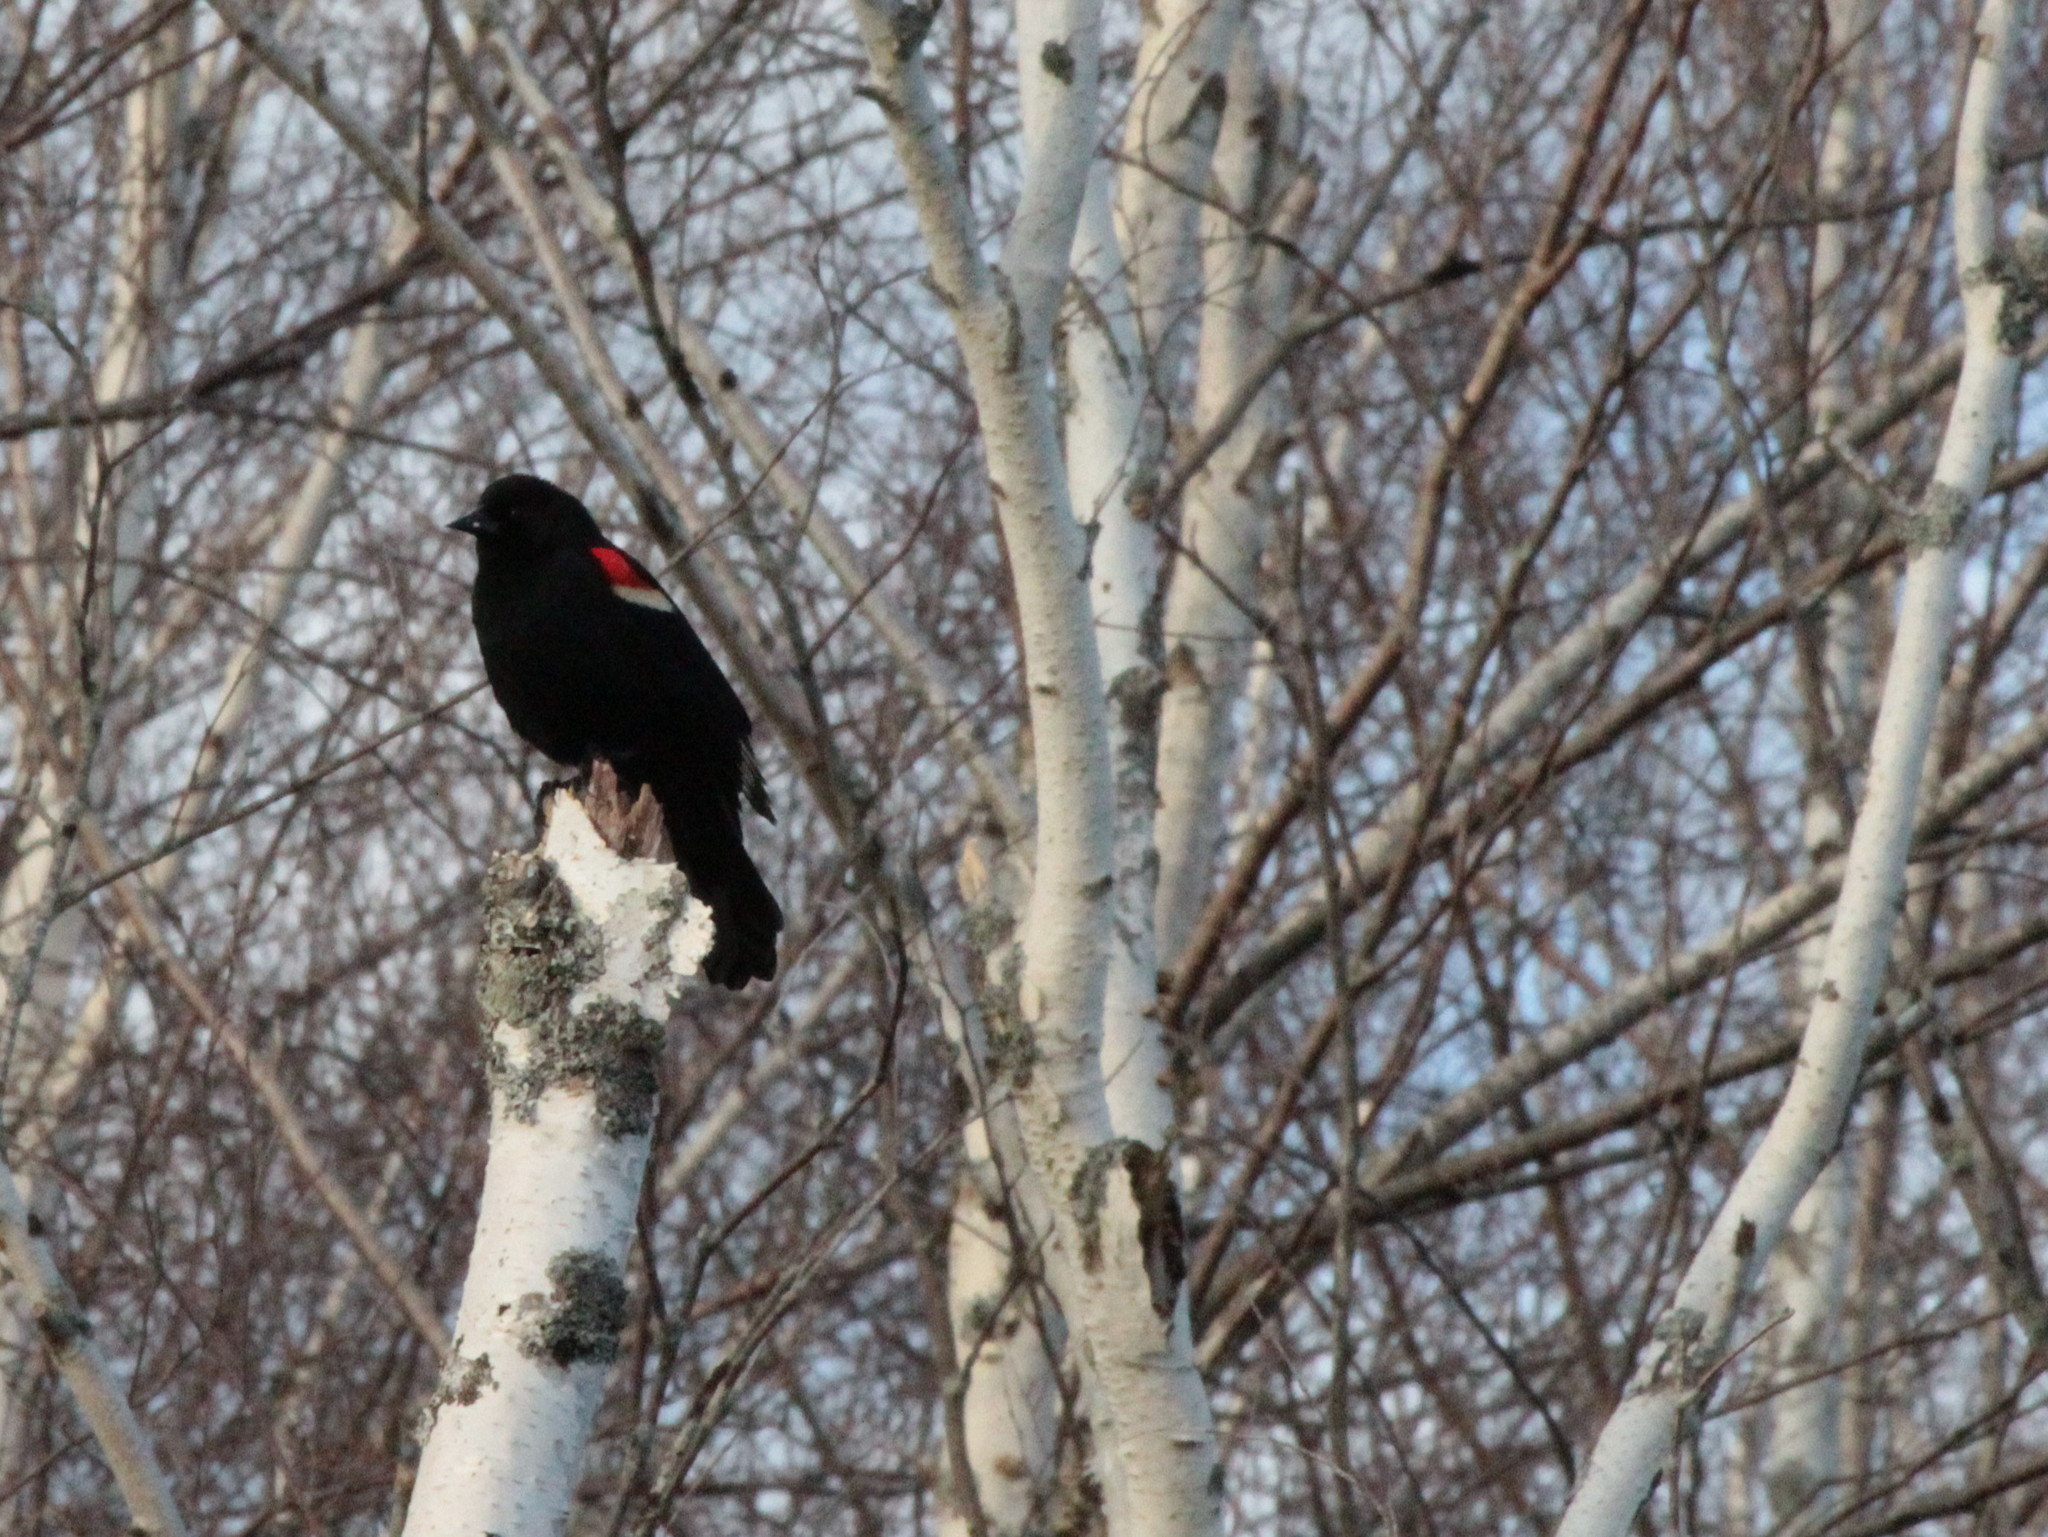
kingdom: Animalia
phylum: Chordata
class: Aves
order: Passeriformes
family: Icteridae
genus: Agelaius
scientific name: Agelaius phoeniceus
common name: Red-winged blackbird
